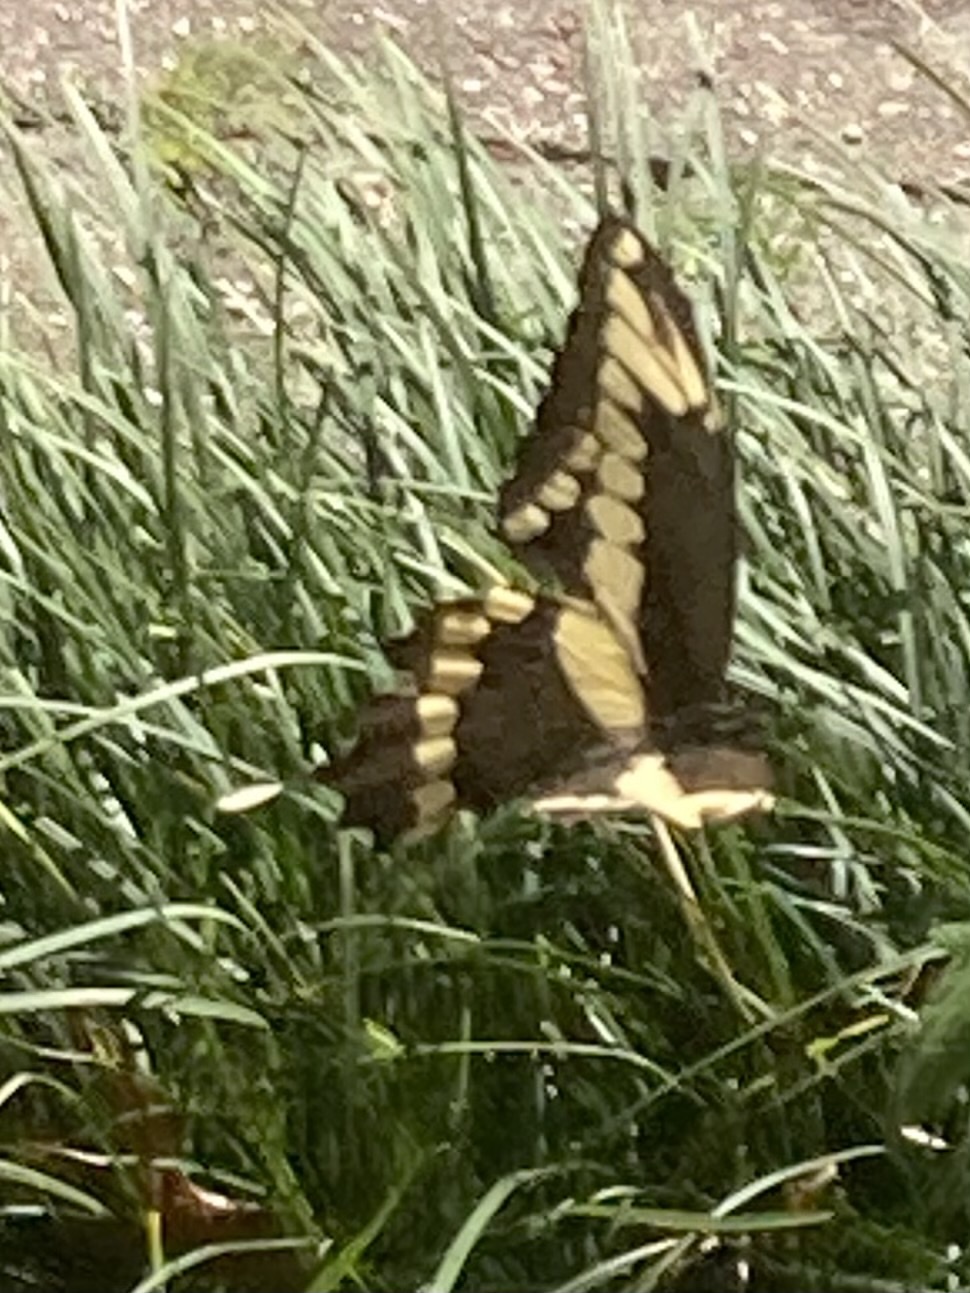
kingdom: Animalia
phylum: Arthropoda
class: Insecta
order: Lepidoptera
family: Papilionidae
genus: Papilio
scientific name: Papilio cresphontes
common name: Giant swallowtail
